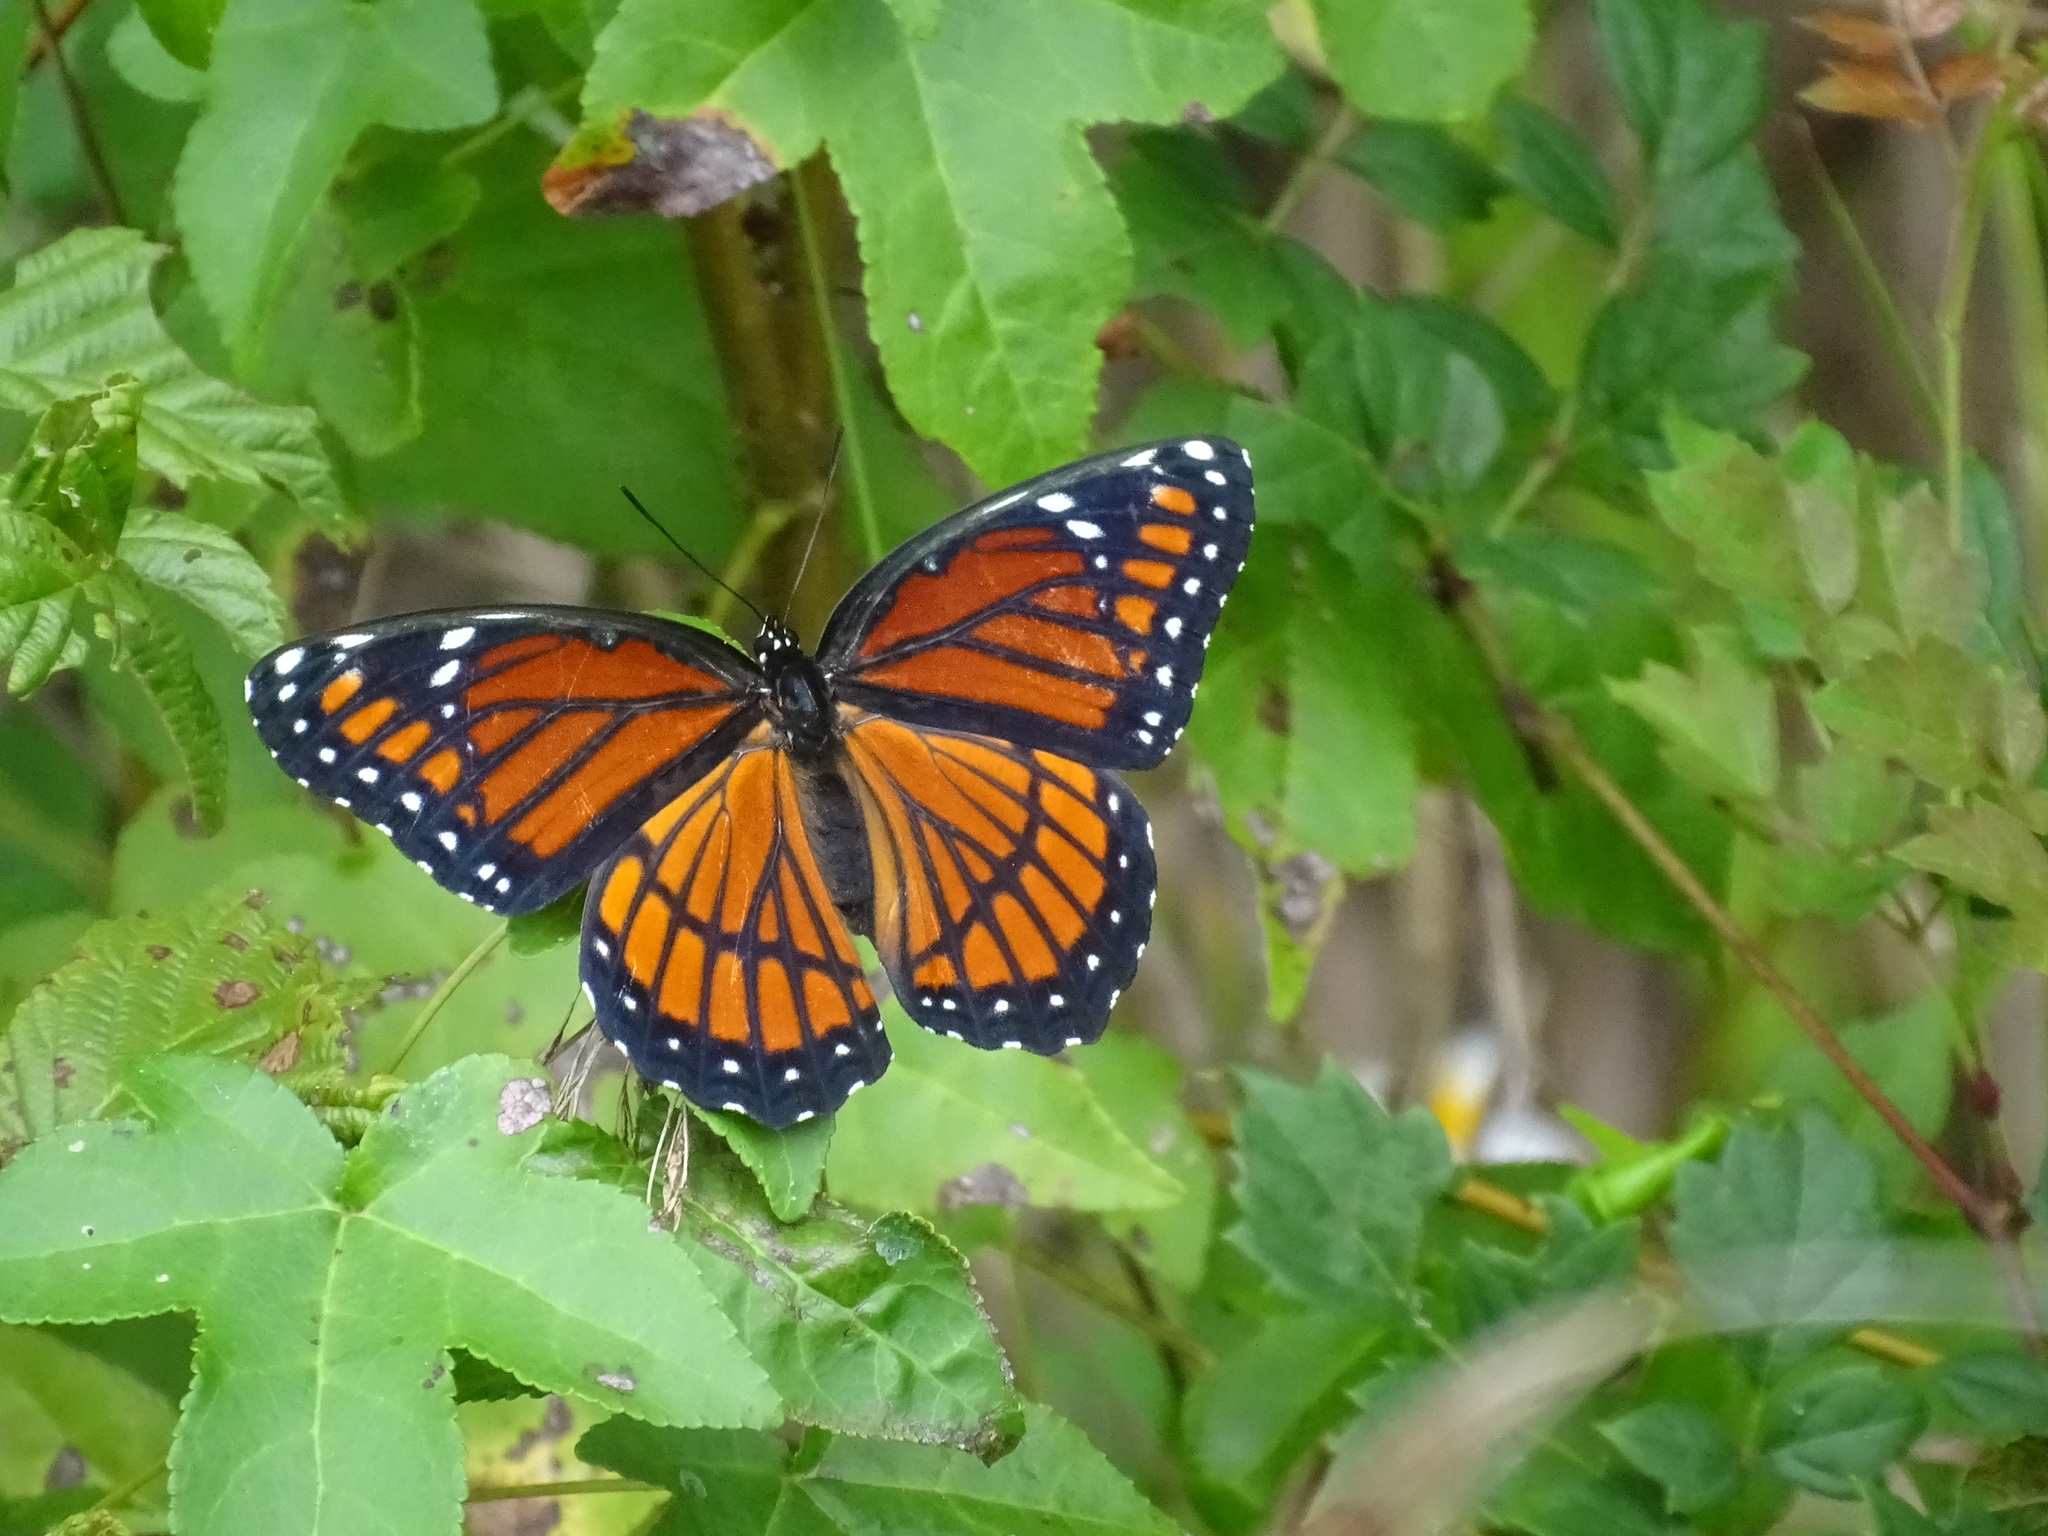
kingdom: Animalia
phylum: Arthropoda
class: Insecta
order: Lepidoptera
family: Nymphalidae
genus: Limenitis
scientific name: Limenitis archippus
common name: Viceroy
